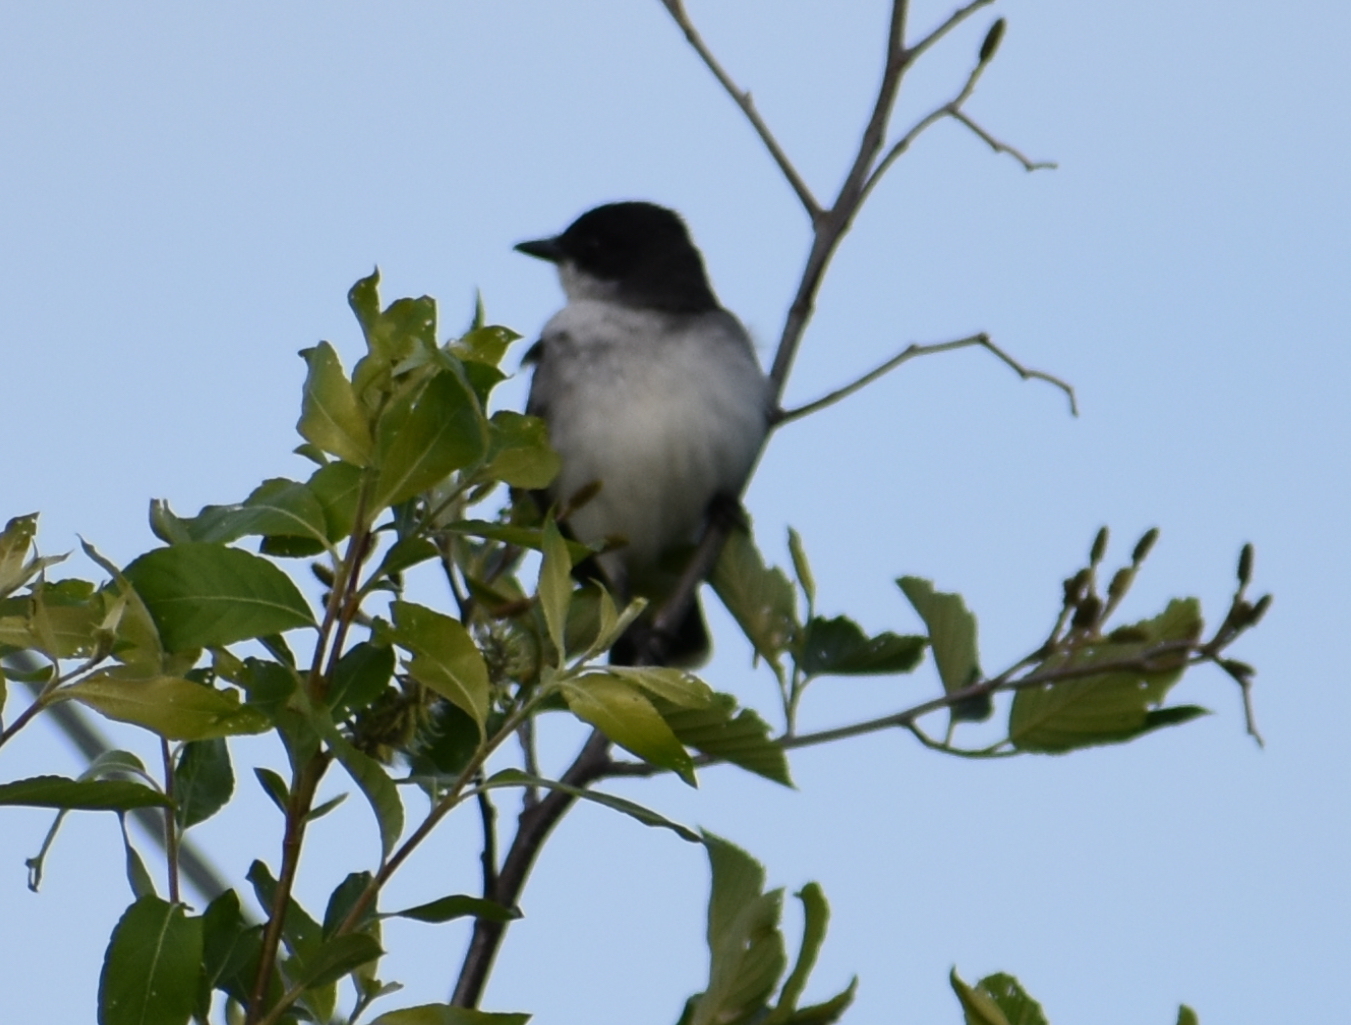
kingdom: Animalia
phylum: Chordata
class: Aves
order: Passeriformes
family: Tyrannidae
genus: Tyrannus
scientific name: Tyrannus tyrannus
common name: Eastern kingbird
